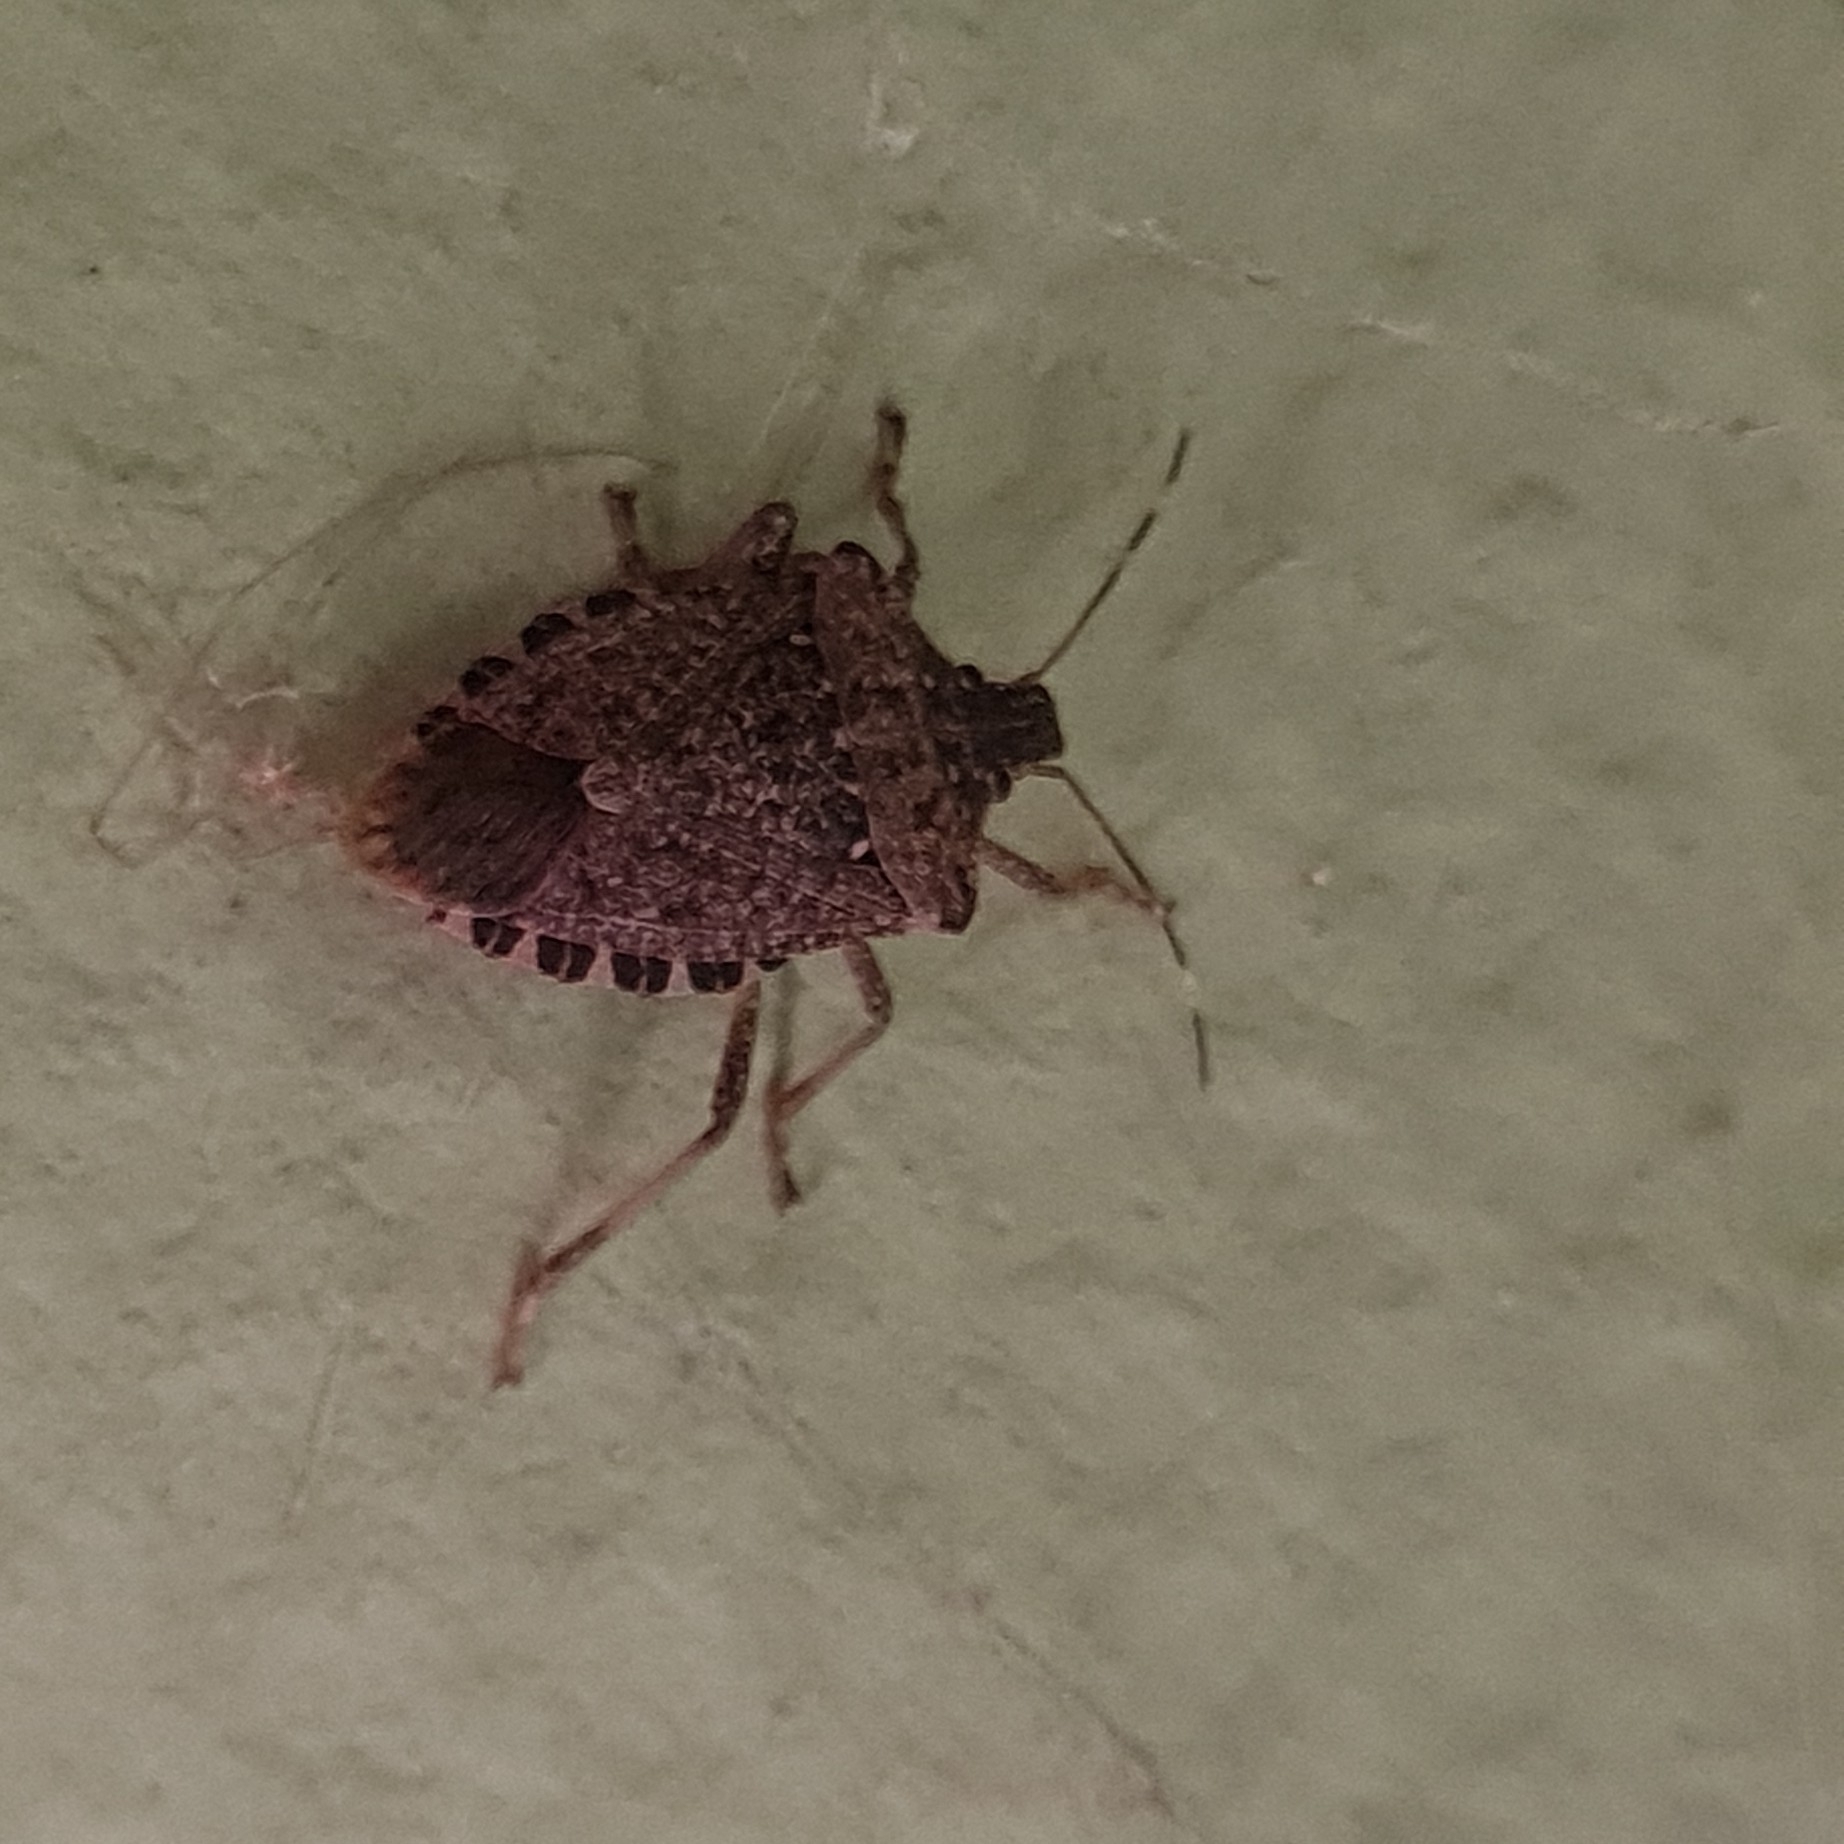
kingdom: Animalia
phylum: Arthropoda
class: Insecta
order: Hemiptera
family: Pentatomidae
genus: Halyomorpha
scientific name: Halyomorpha halys
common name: Brown marmorated stink bug
